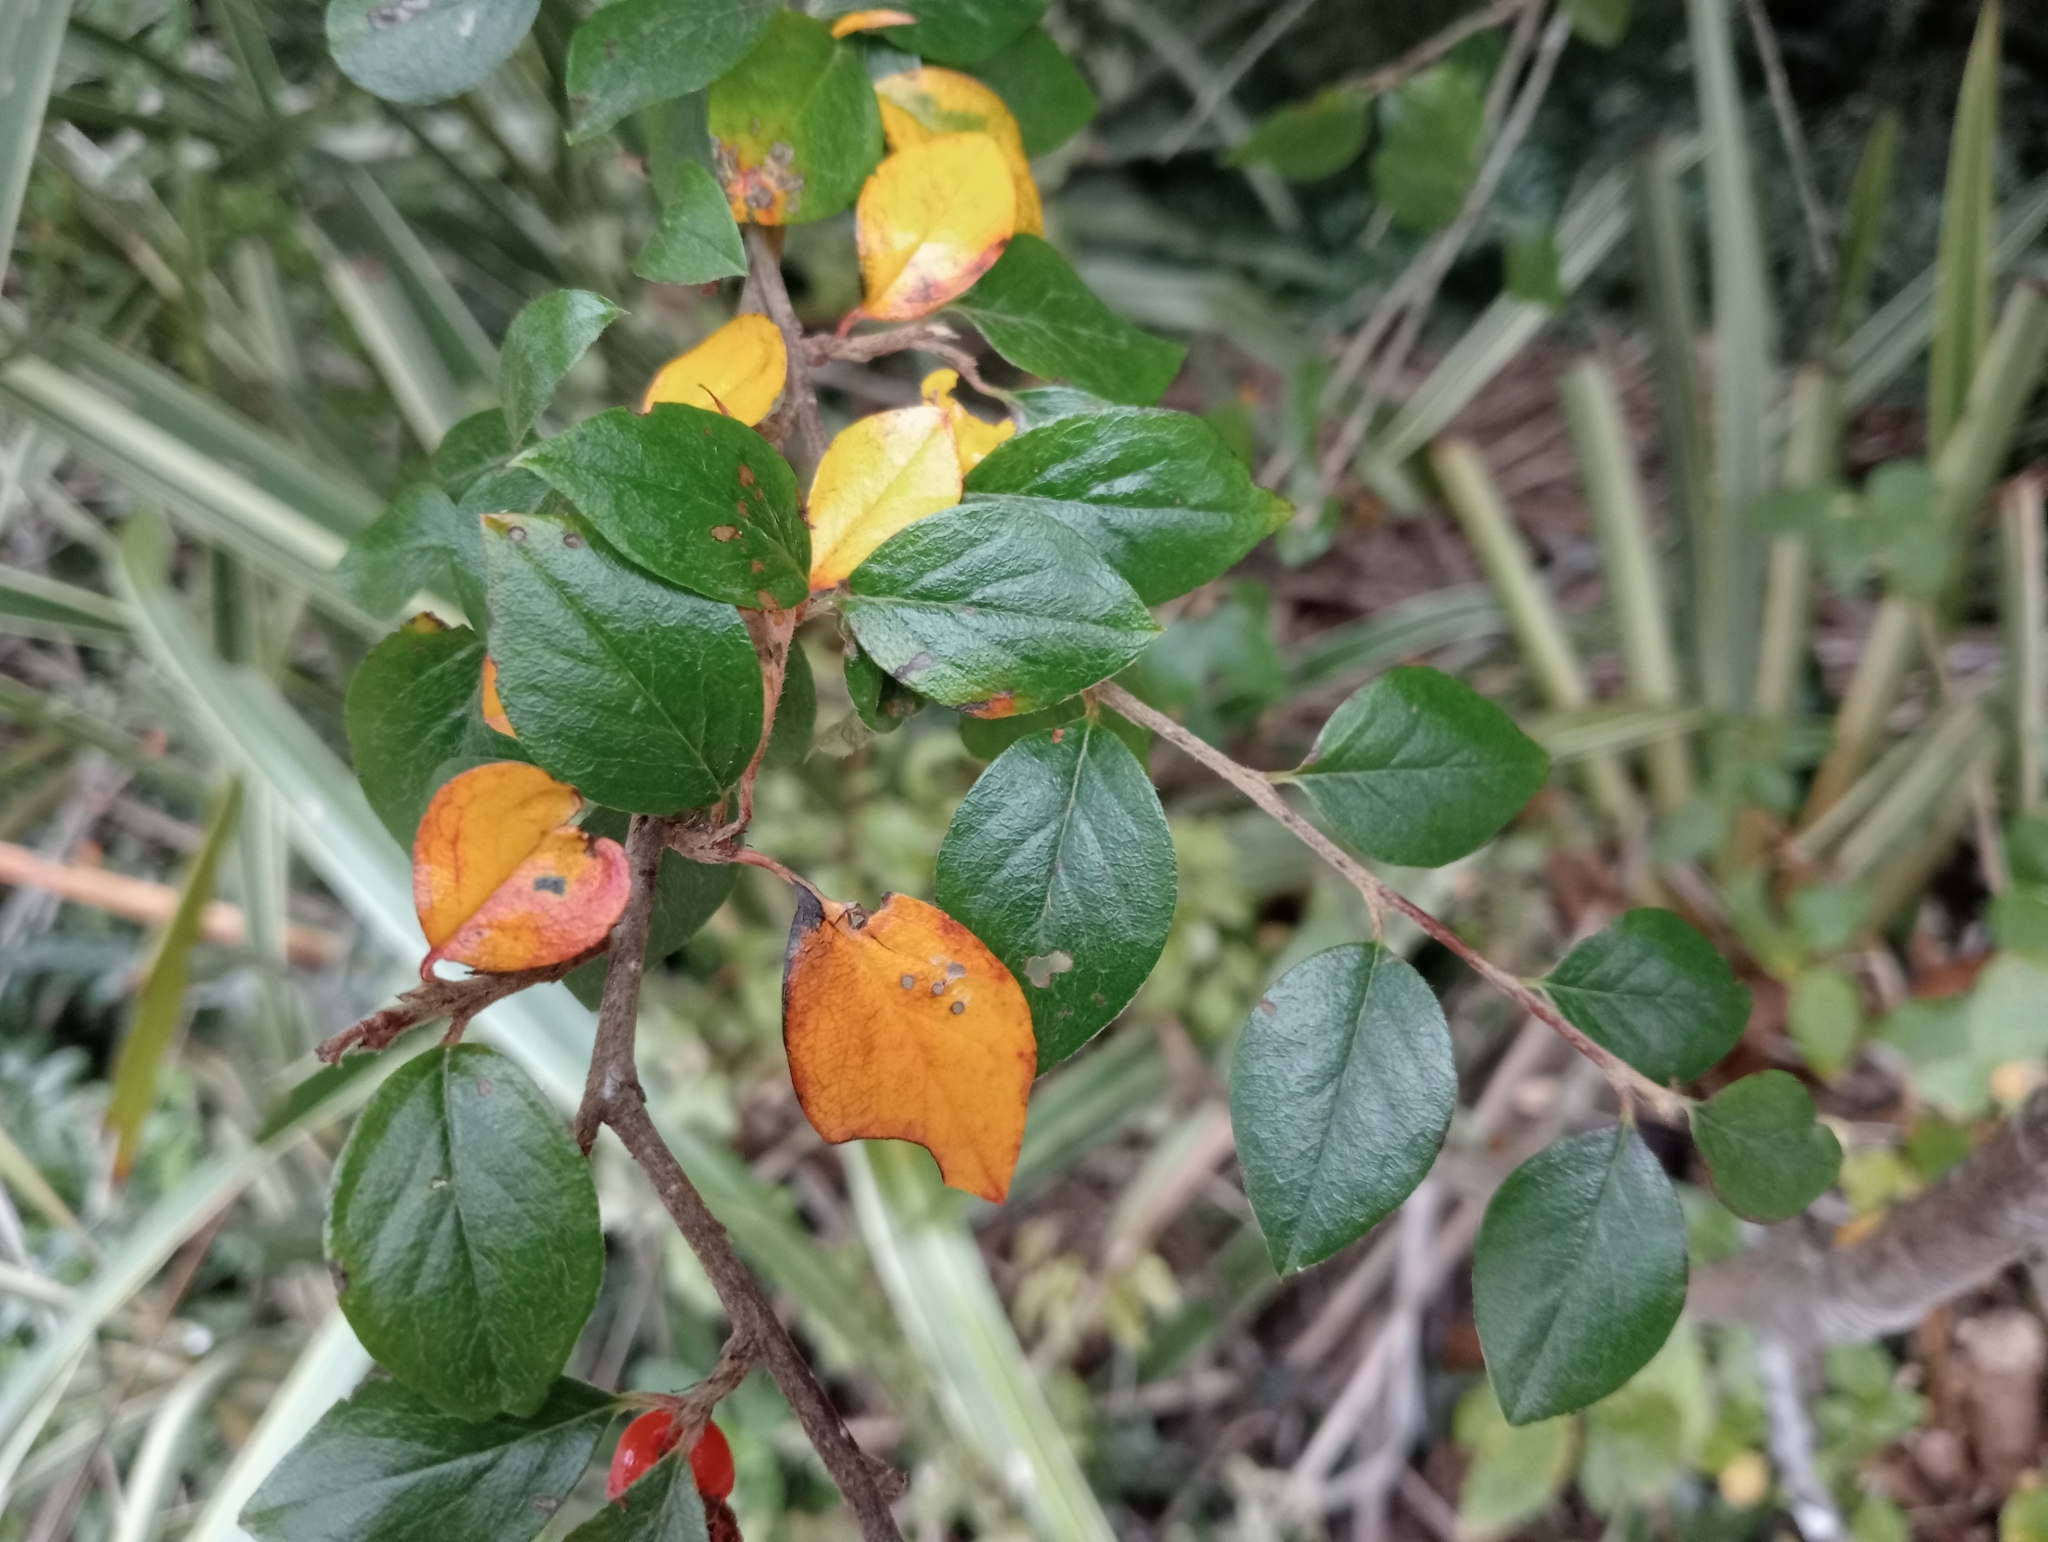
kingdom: Plantae
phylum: Tracheophyta
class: Magnoliopsida
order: Rosales
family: Rosaceae
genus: Cotoneaster
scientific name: Cotoneaster simonsii
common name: Himalayan cotoneaster
